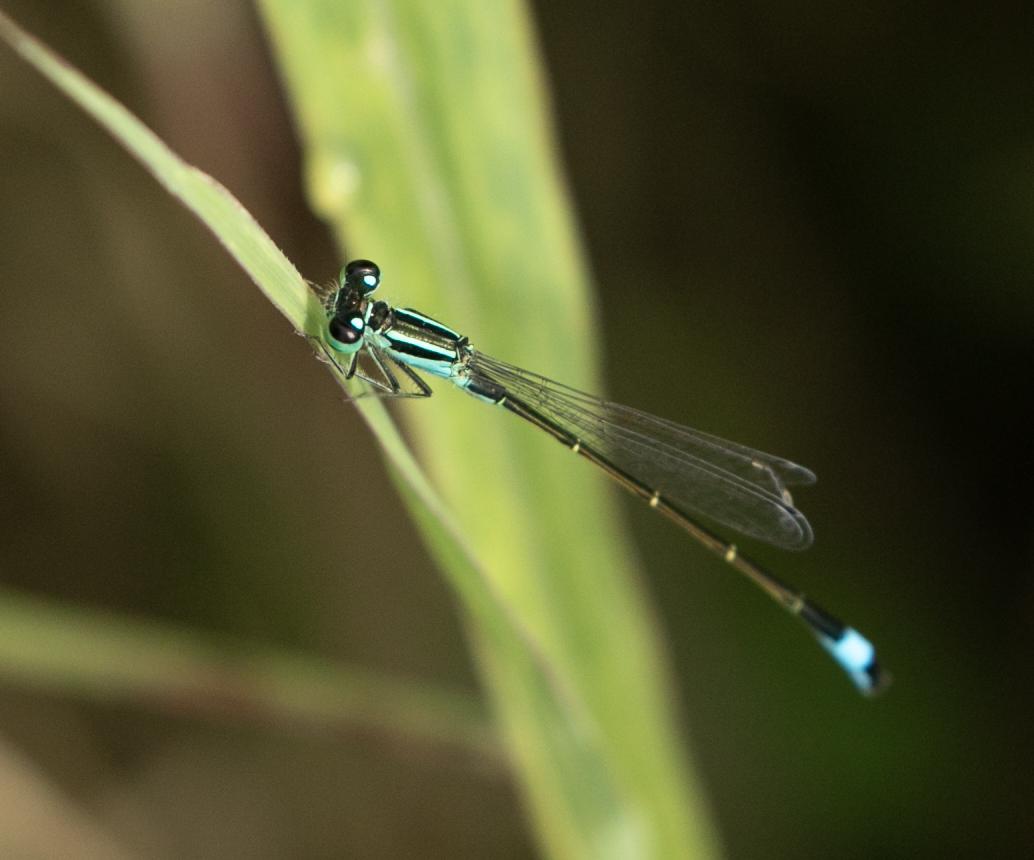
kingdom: Animalia
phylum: Arthropoda
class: Insecta
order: Odonata
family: Coenagrionidae
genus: Ischnura
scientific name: Ischnura elegans
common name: Blue-tailed damselfly
